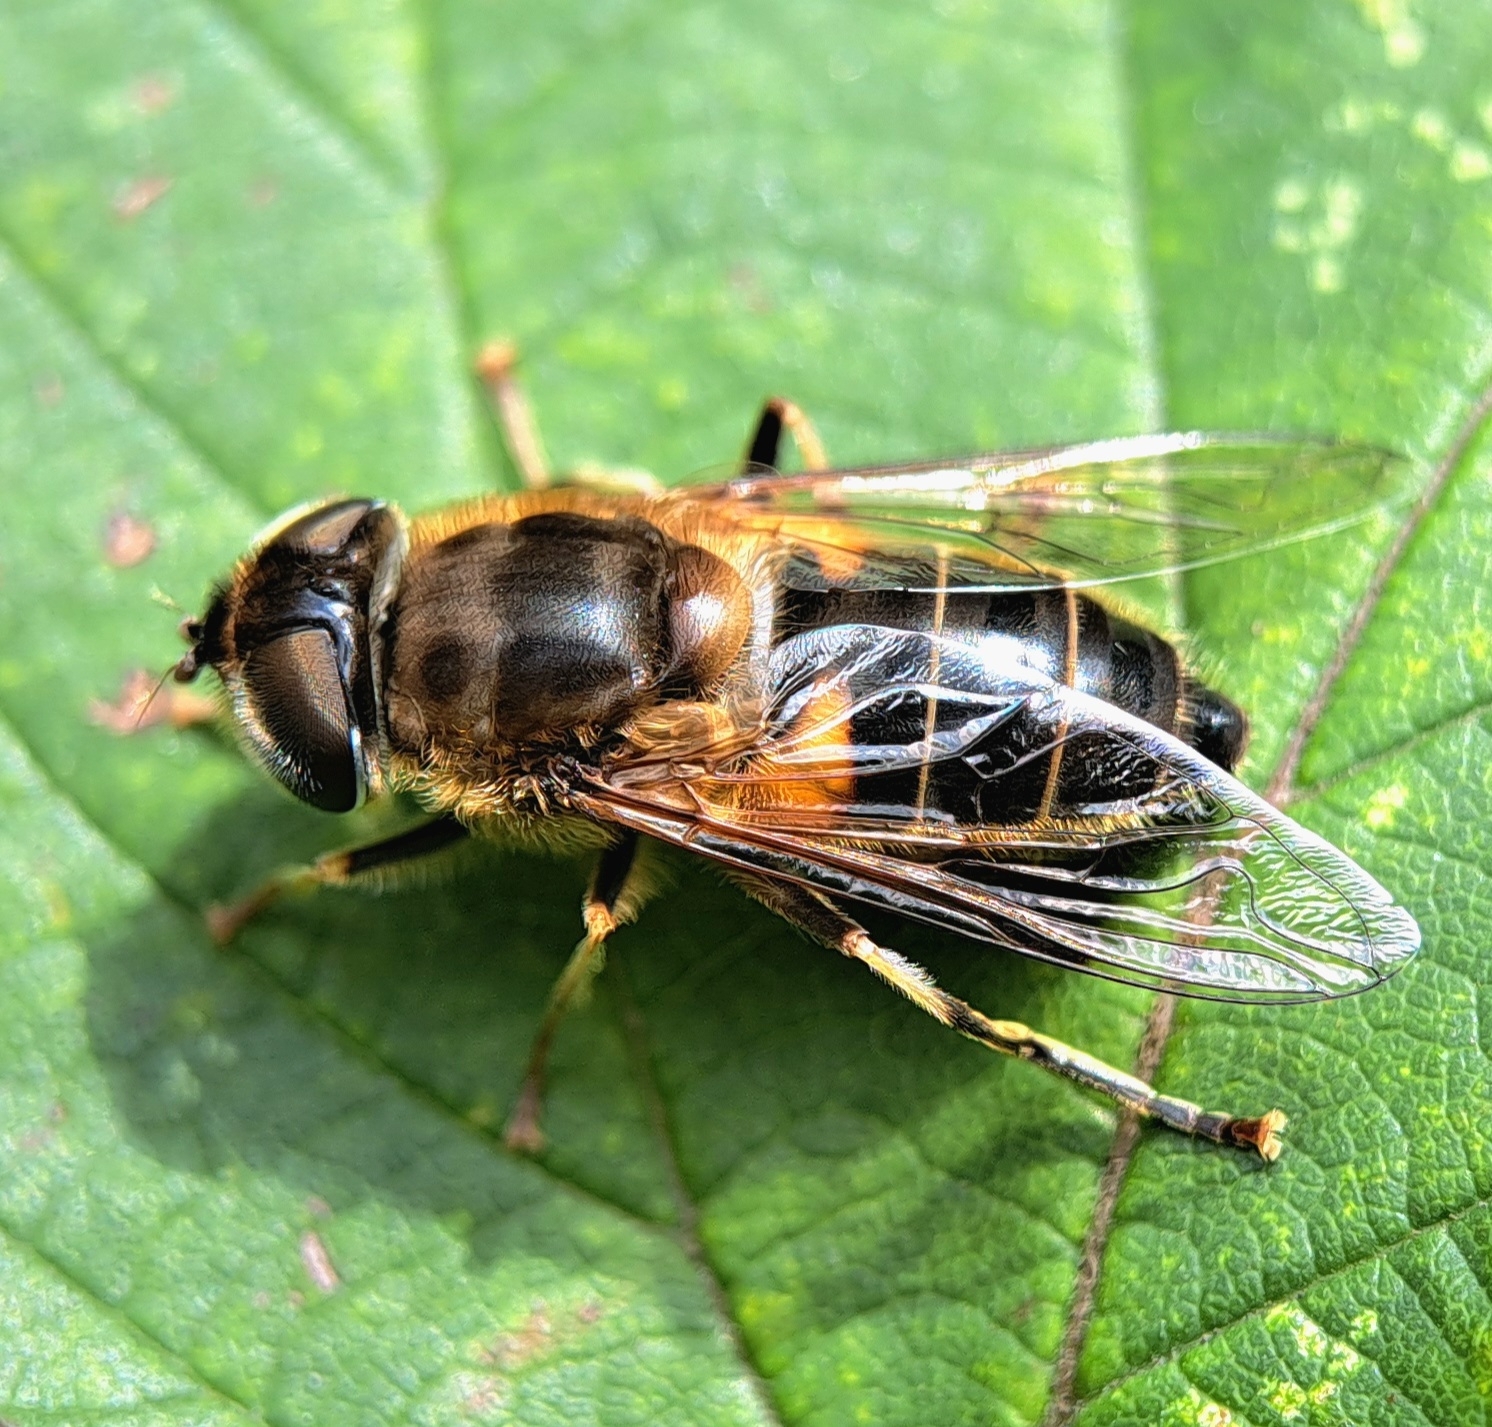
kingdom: Animalia
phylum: Arthropoda
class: Insecta
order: Diptera
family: Syrphidae
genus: Eristalis
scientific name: Eristalis pertinax
